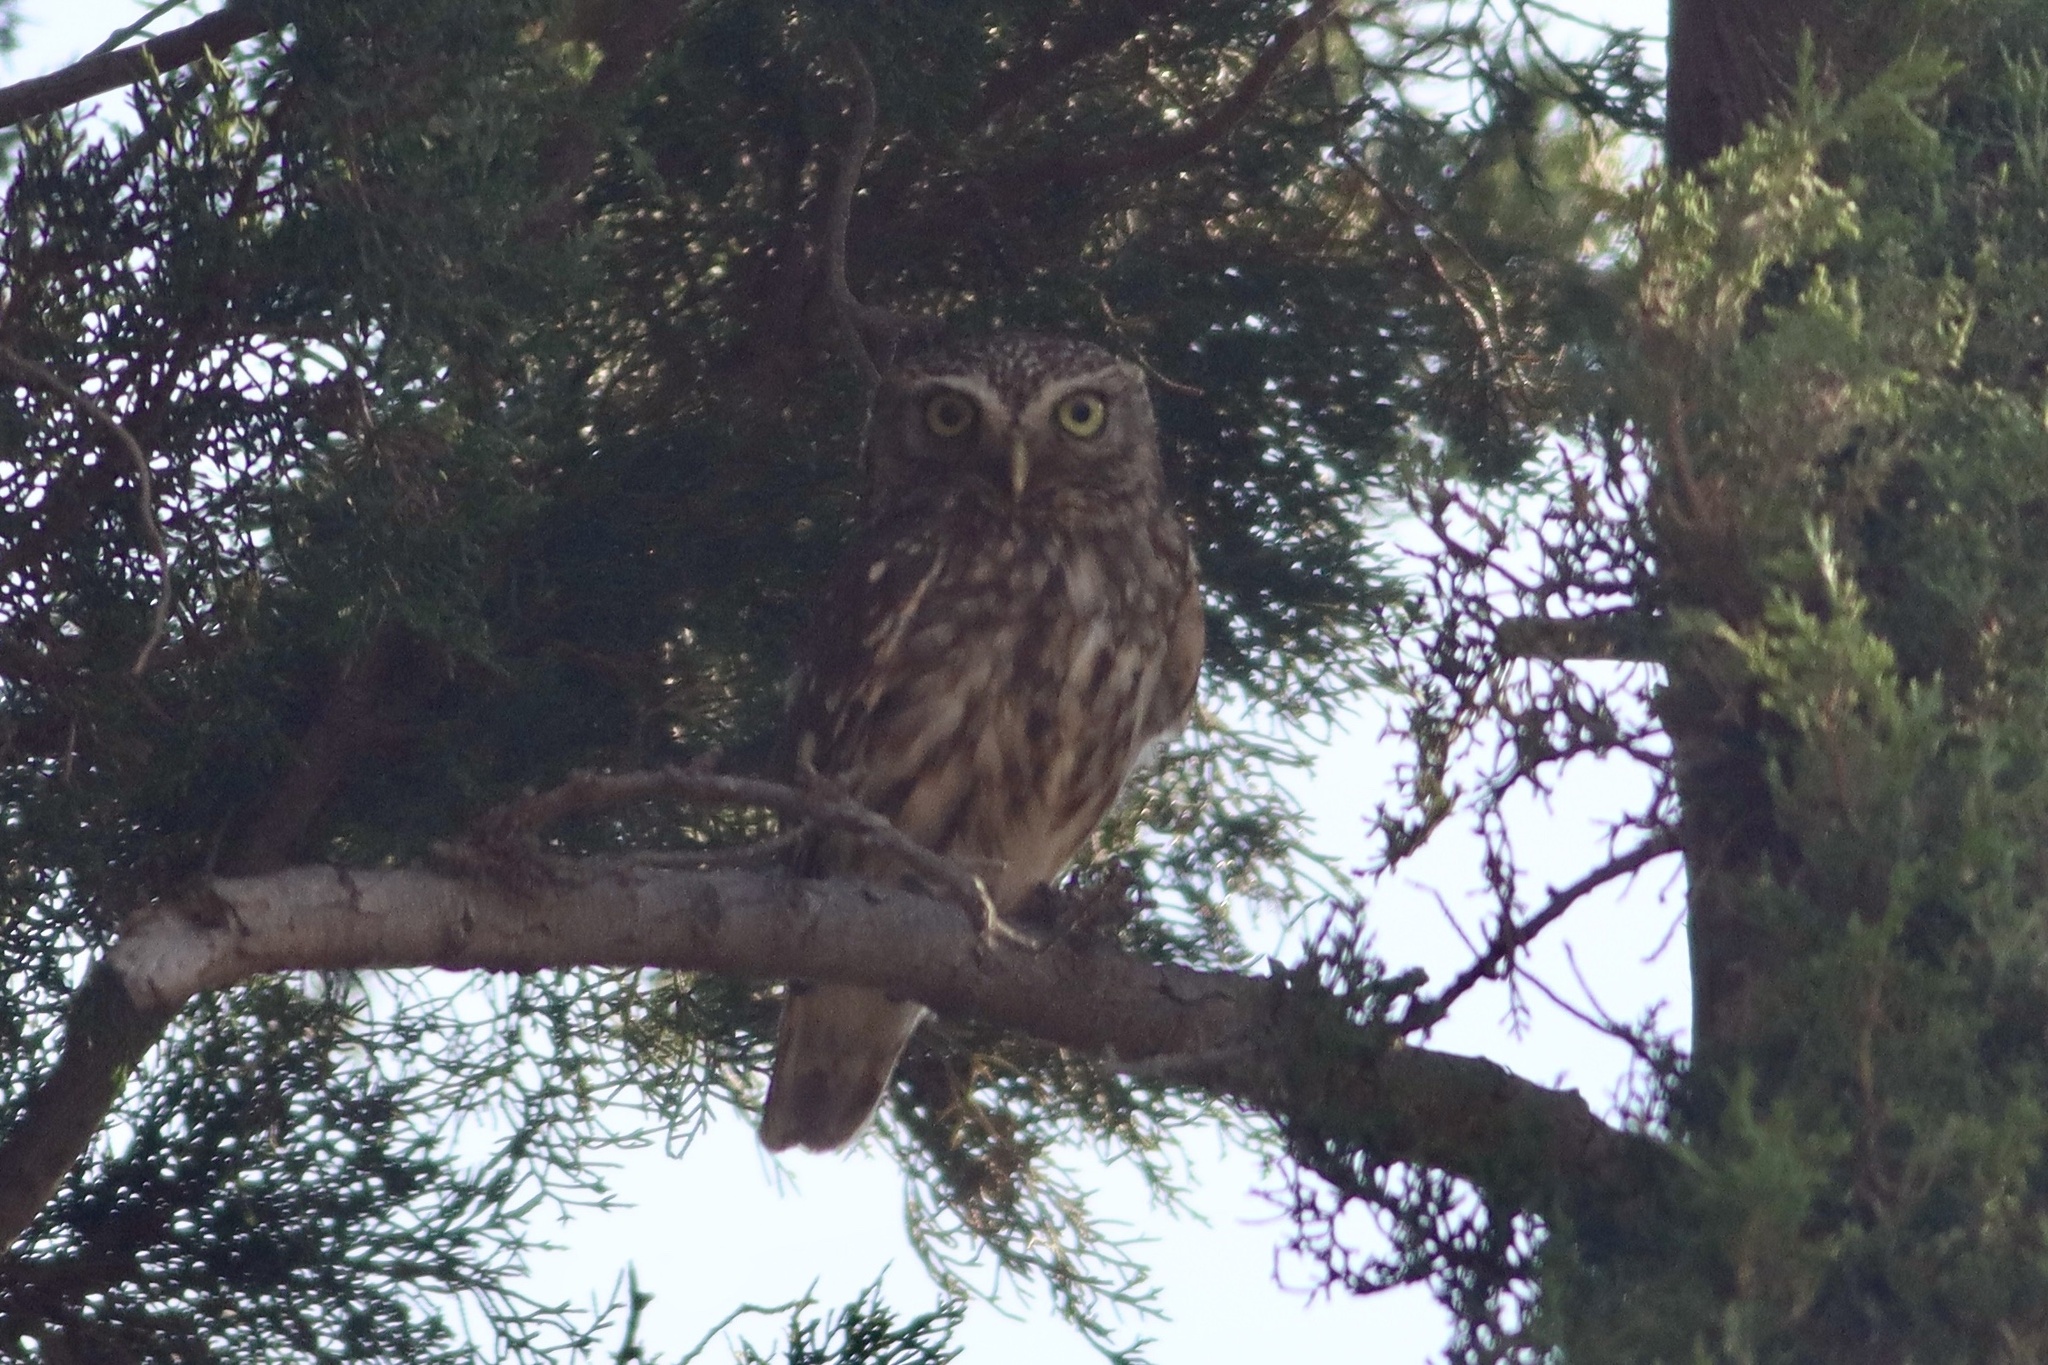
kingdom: Animalia
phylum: Chordata
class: Aves
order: Strigiformes
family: Strigidae
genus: Athene
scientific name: Athene noctua
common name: Little owl
